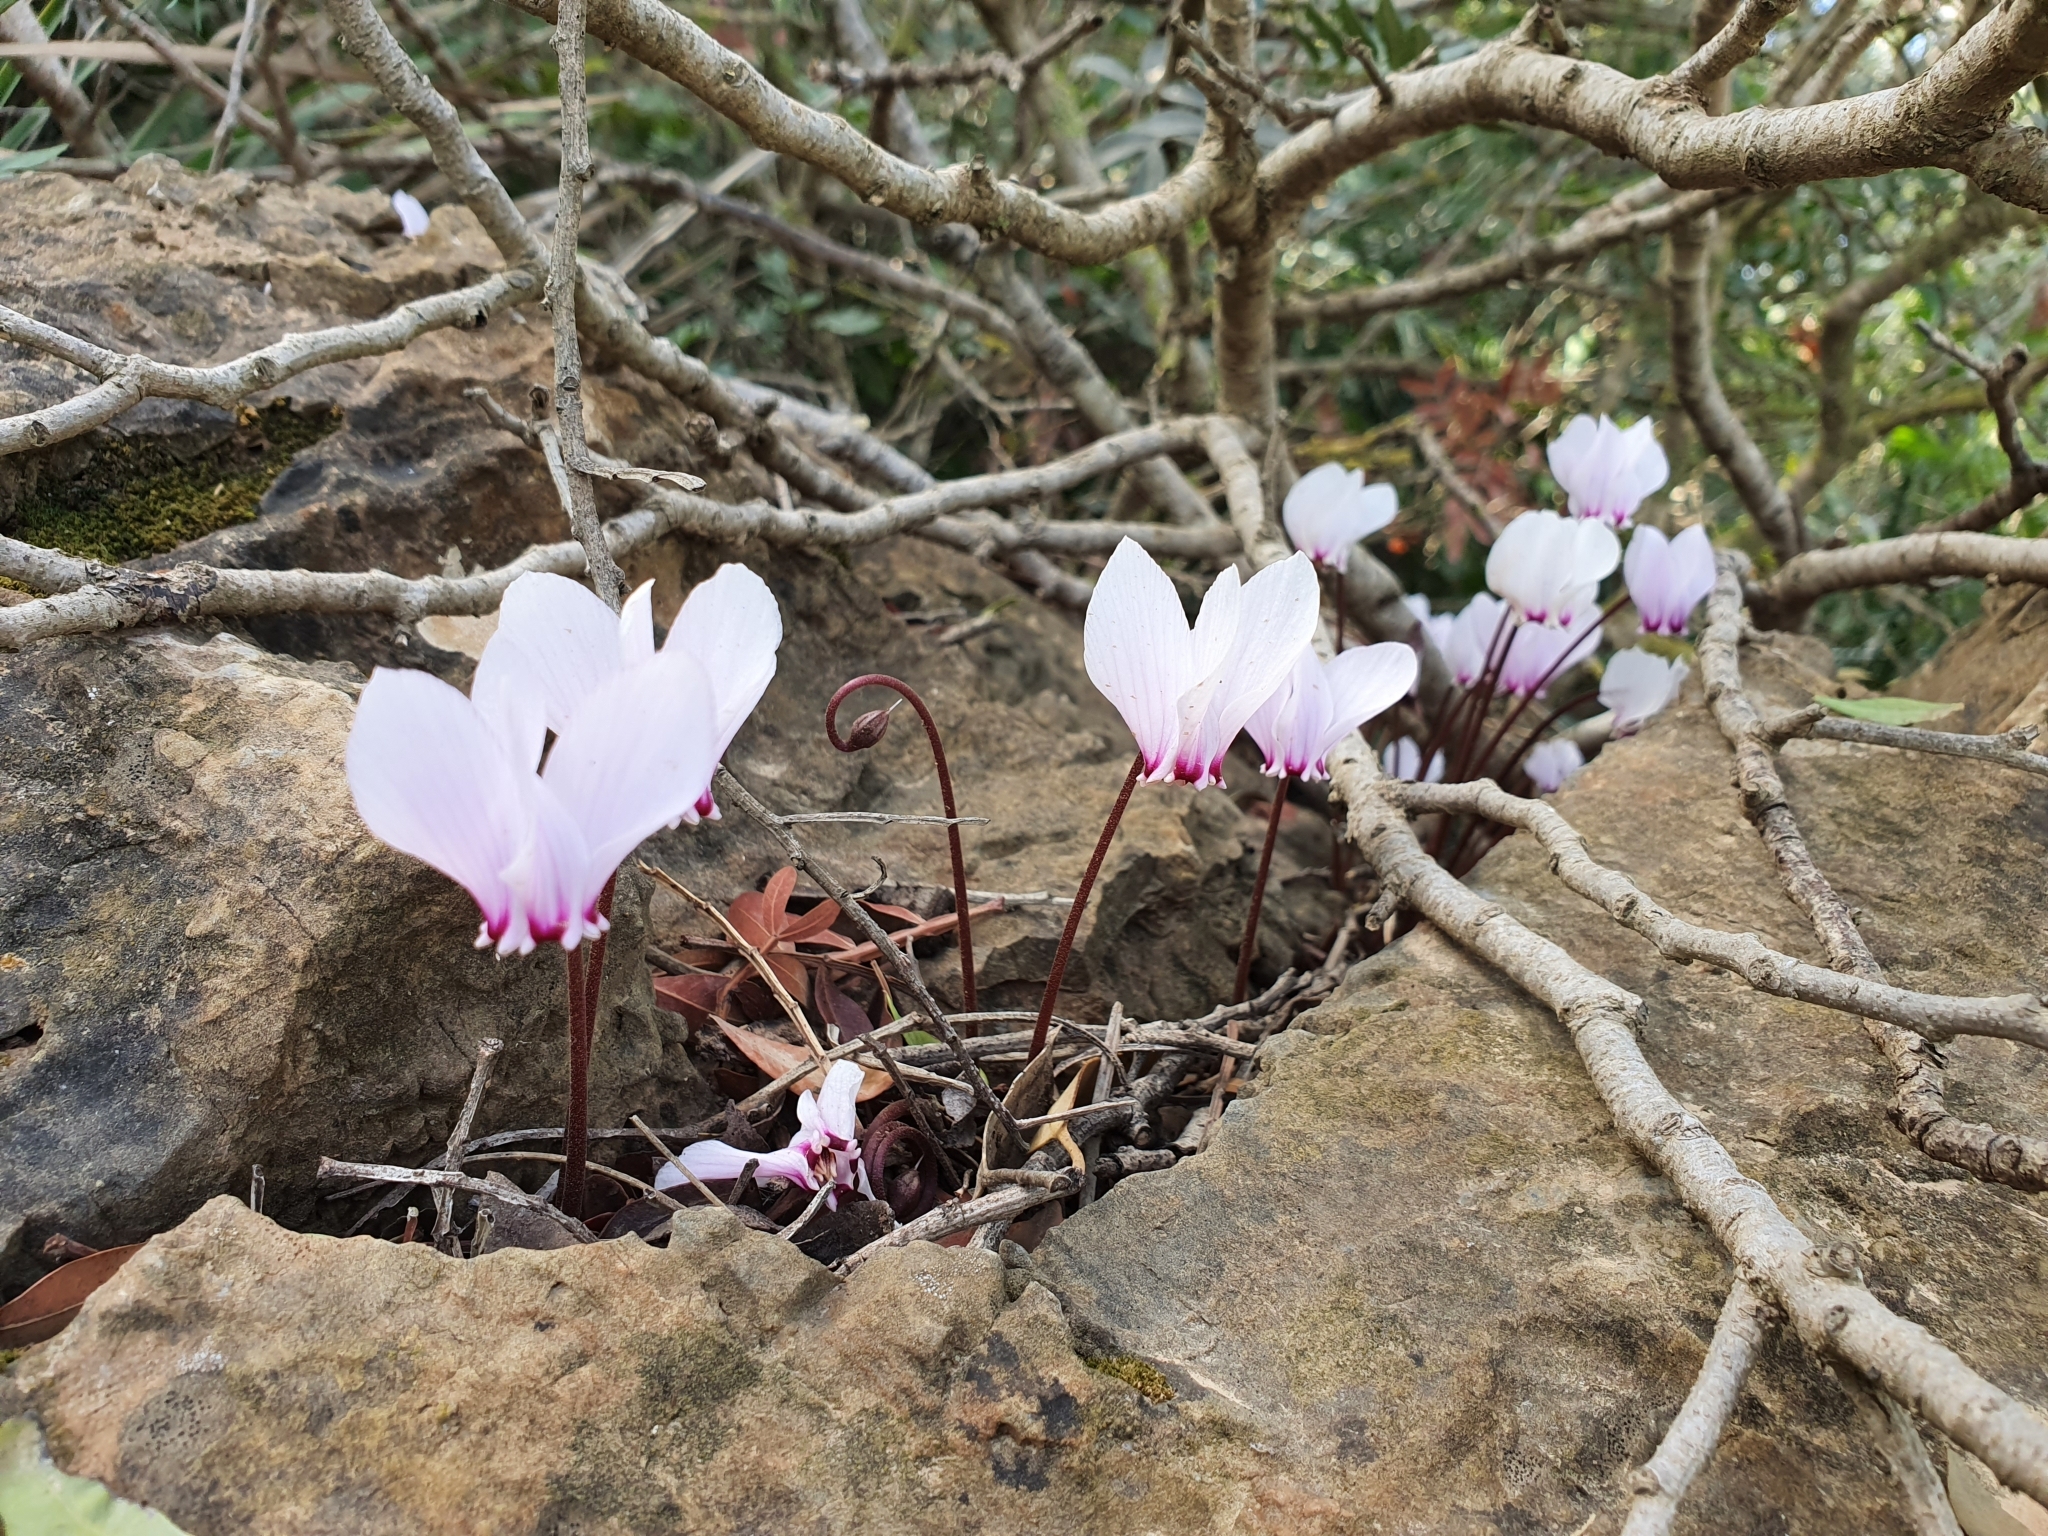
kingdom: Plantae
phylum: Tracheophyta
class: Magnoliopsida
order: Ericales
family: Primulaceae
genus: Cyclamen
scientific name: Cyclamen africanum
